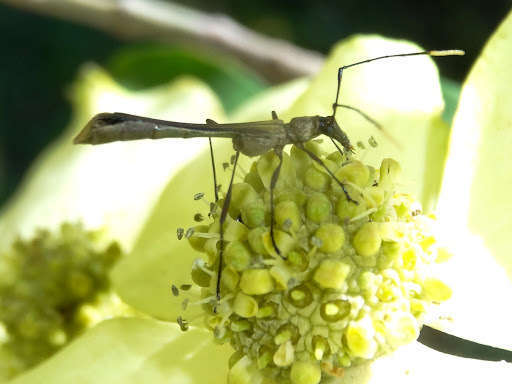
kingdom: Animalia
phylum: Arthropoda
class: Insecta
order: Coleoptera
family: Cerambycidae
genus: Enchoptera
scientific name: Enchoptera apicalis
